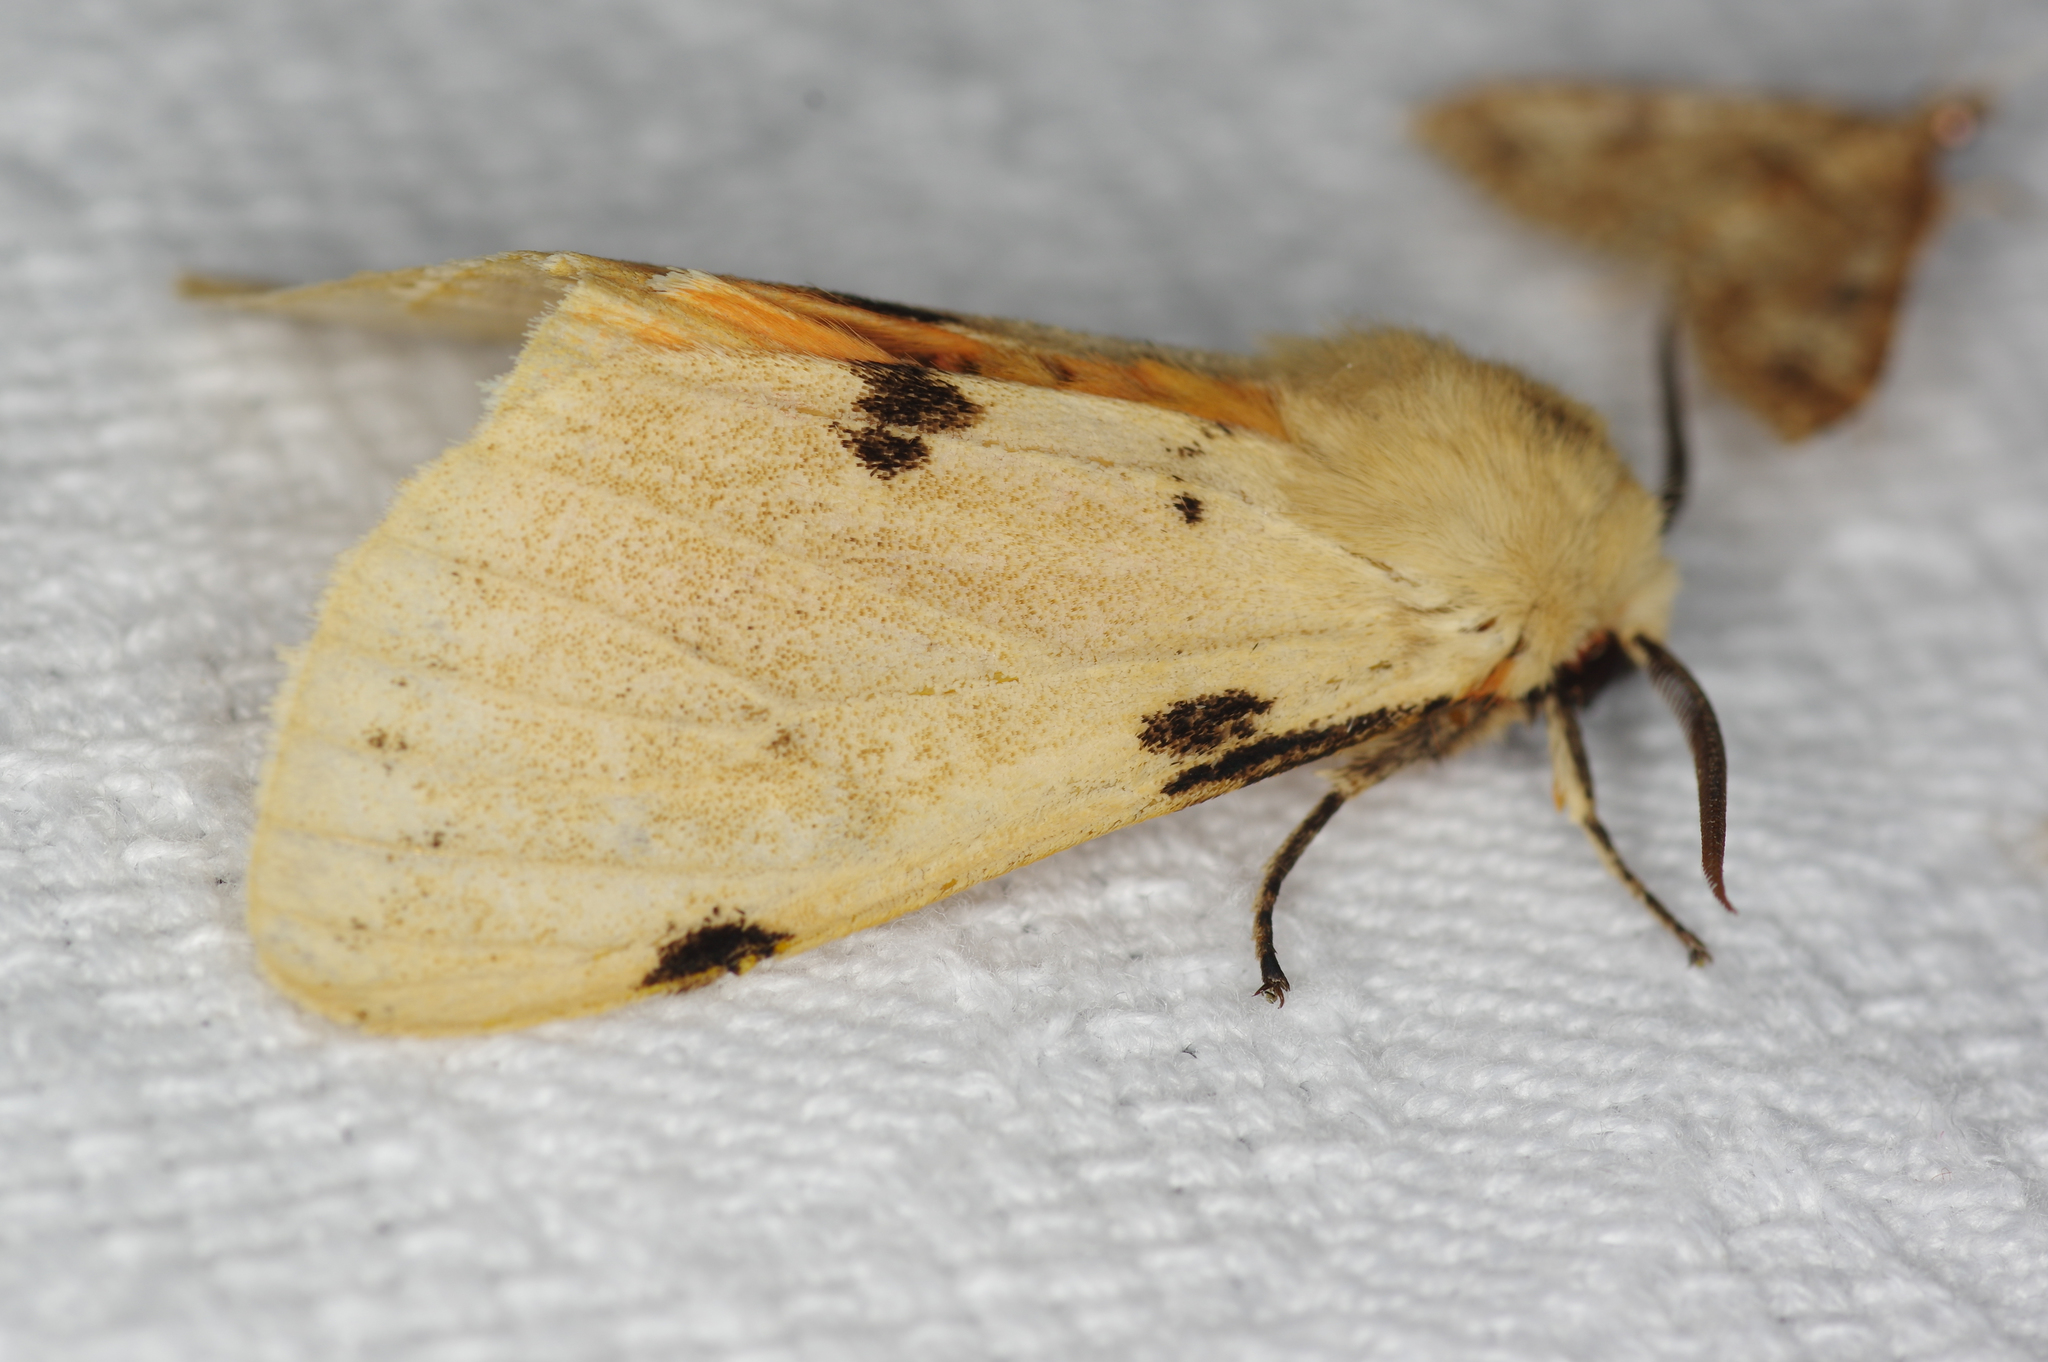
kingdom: Animalia
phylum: Arthropoda
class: Insecta
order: Lepidoptera
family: Erebidae
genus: Spilosoma
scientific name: Spilosoma lateritica
